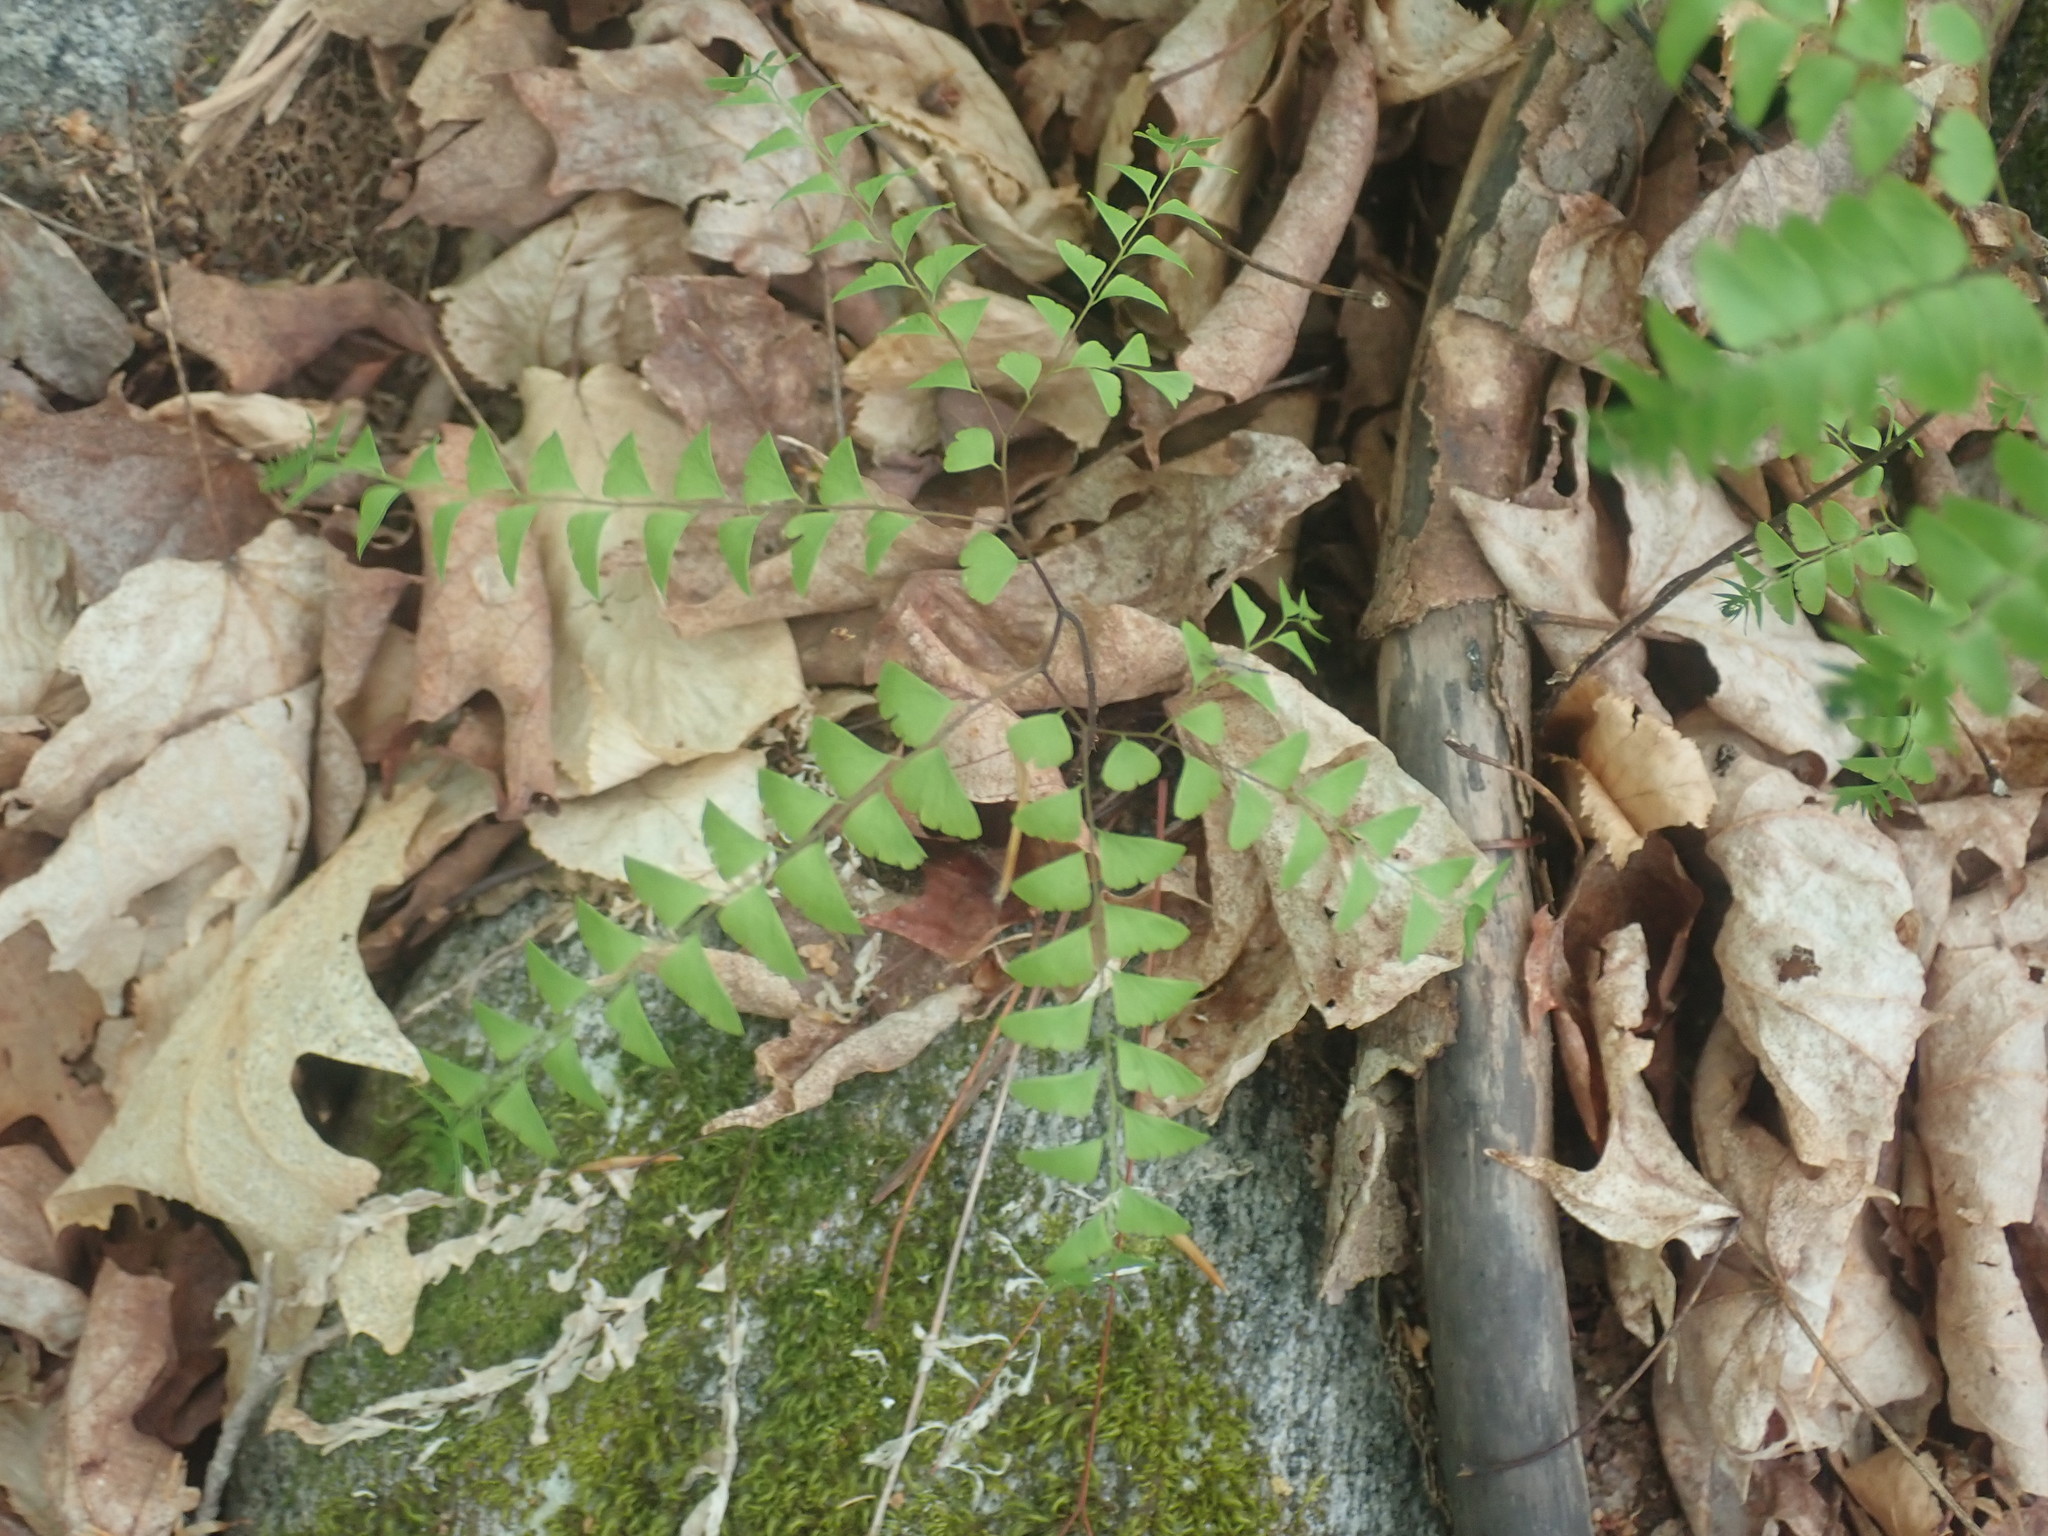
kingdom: Plantae
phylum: Tracheophyta
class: Polypodiopsida
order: Polypodiales
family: Pteridaceae
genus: Adiantum
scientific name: Adiantum pedatum
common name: Five-finger fern
